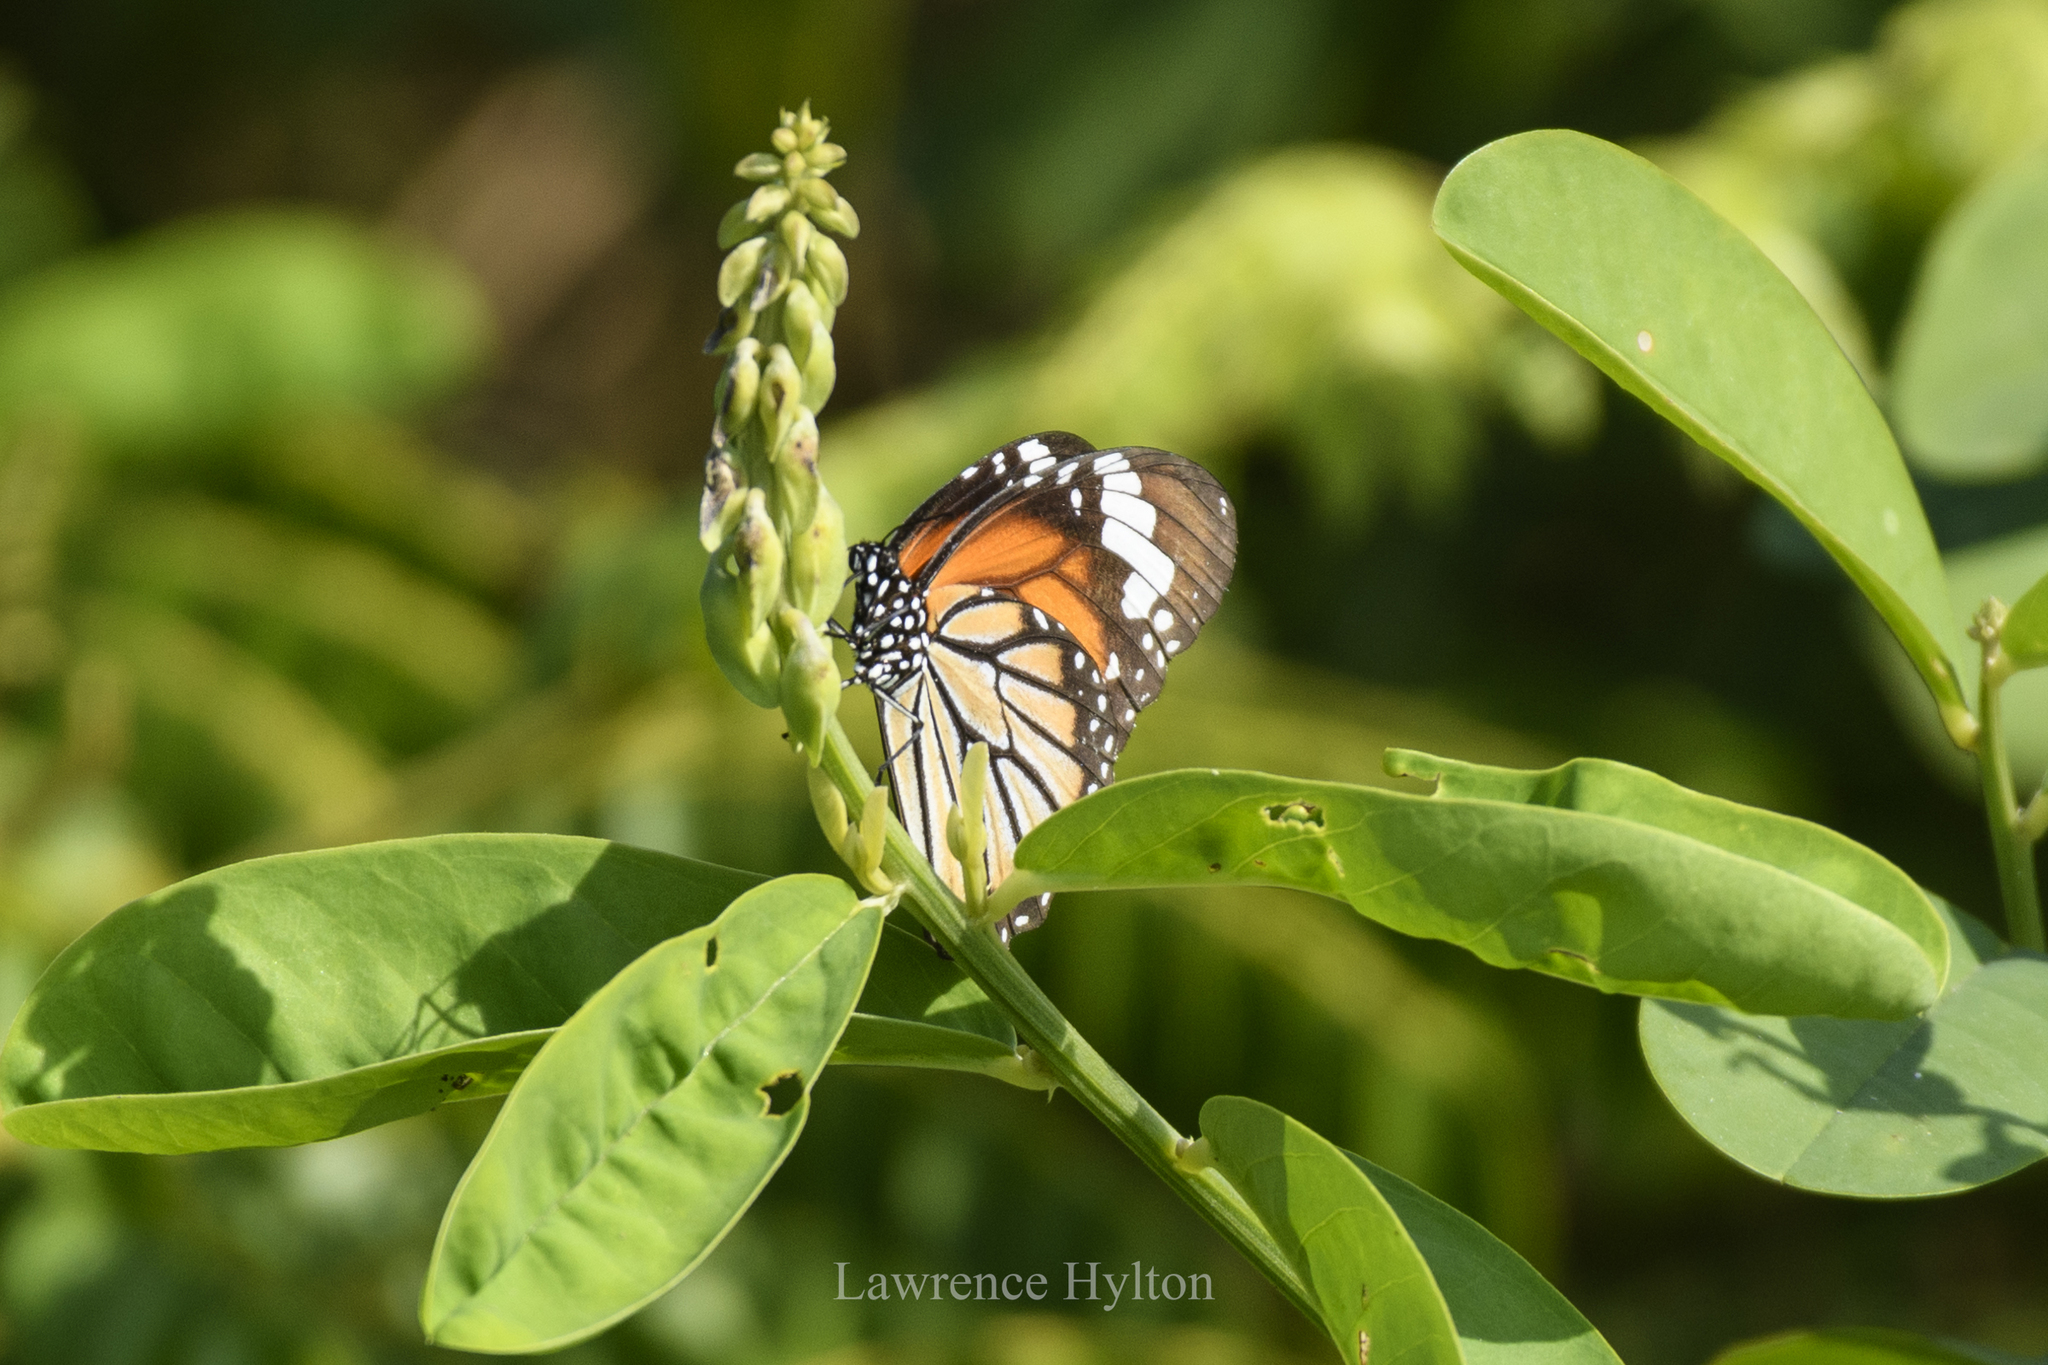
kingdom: Animalia
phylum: Arthropoda
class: Insecta
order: Lepidoptera
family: Nymphalidae
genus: Danaus
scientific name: Danaus genutia
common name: Common tiger butterfly
